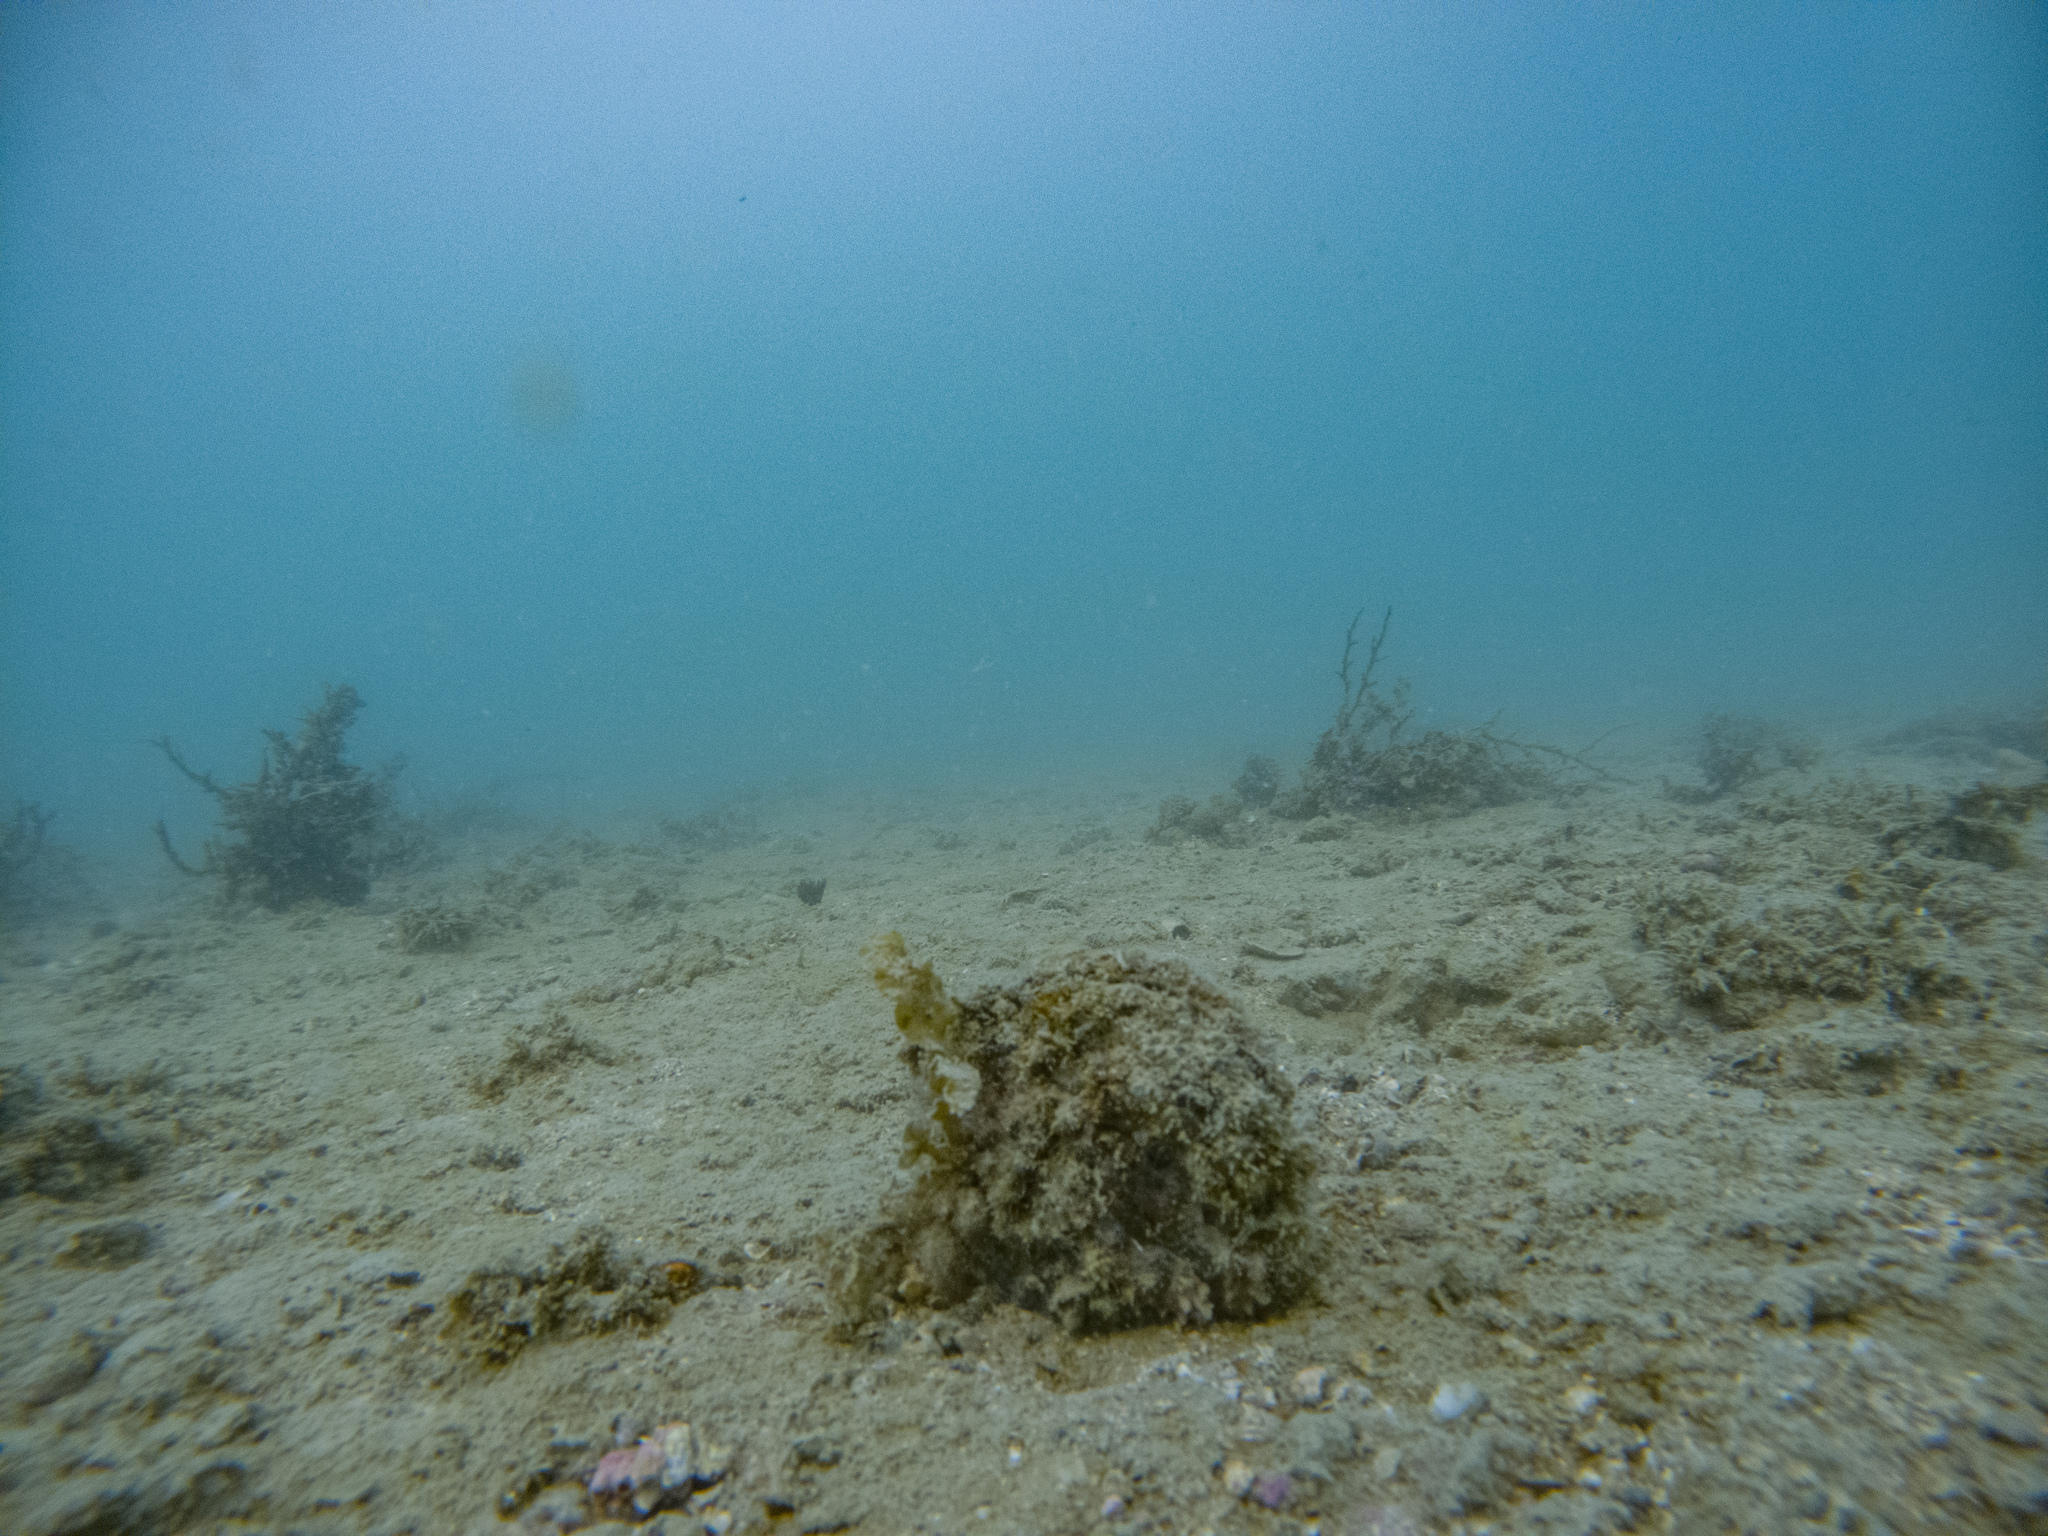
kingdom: Animalia
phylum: Mollusca
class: Bivalvia
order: Ostreida
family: Pinnidae
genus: Atrina
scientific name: Atrina zelandica
